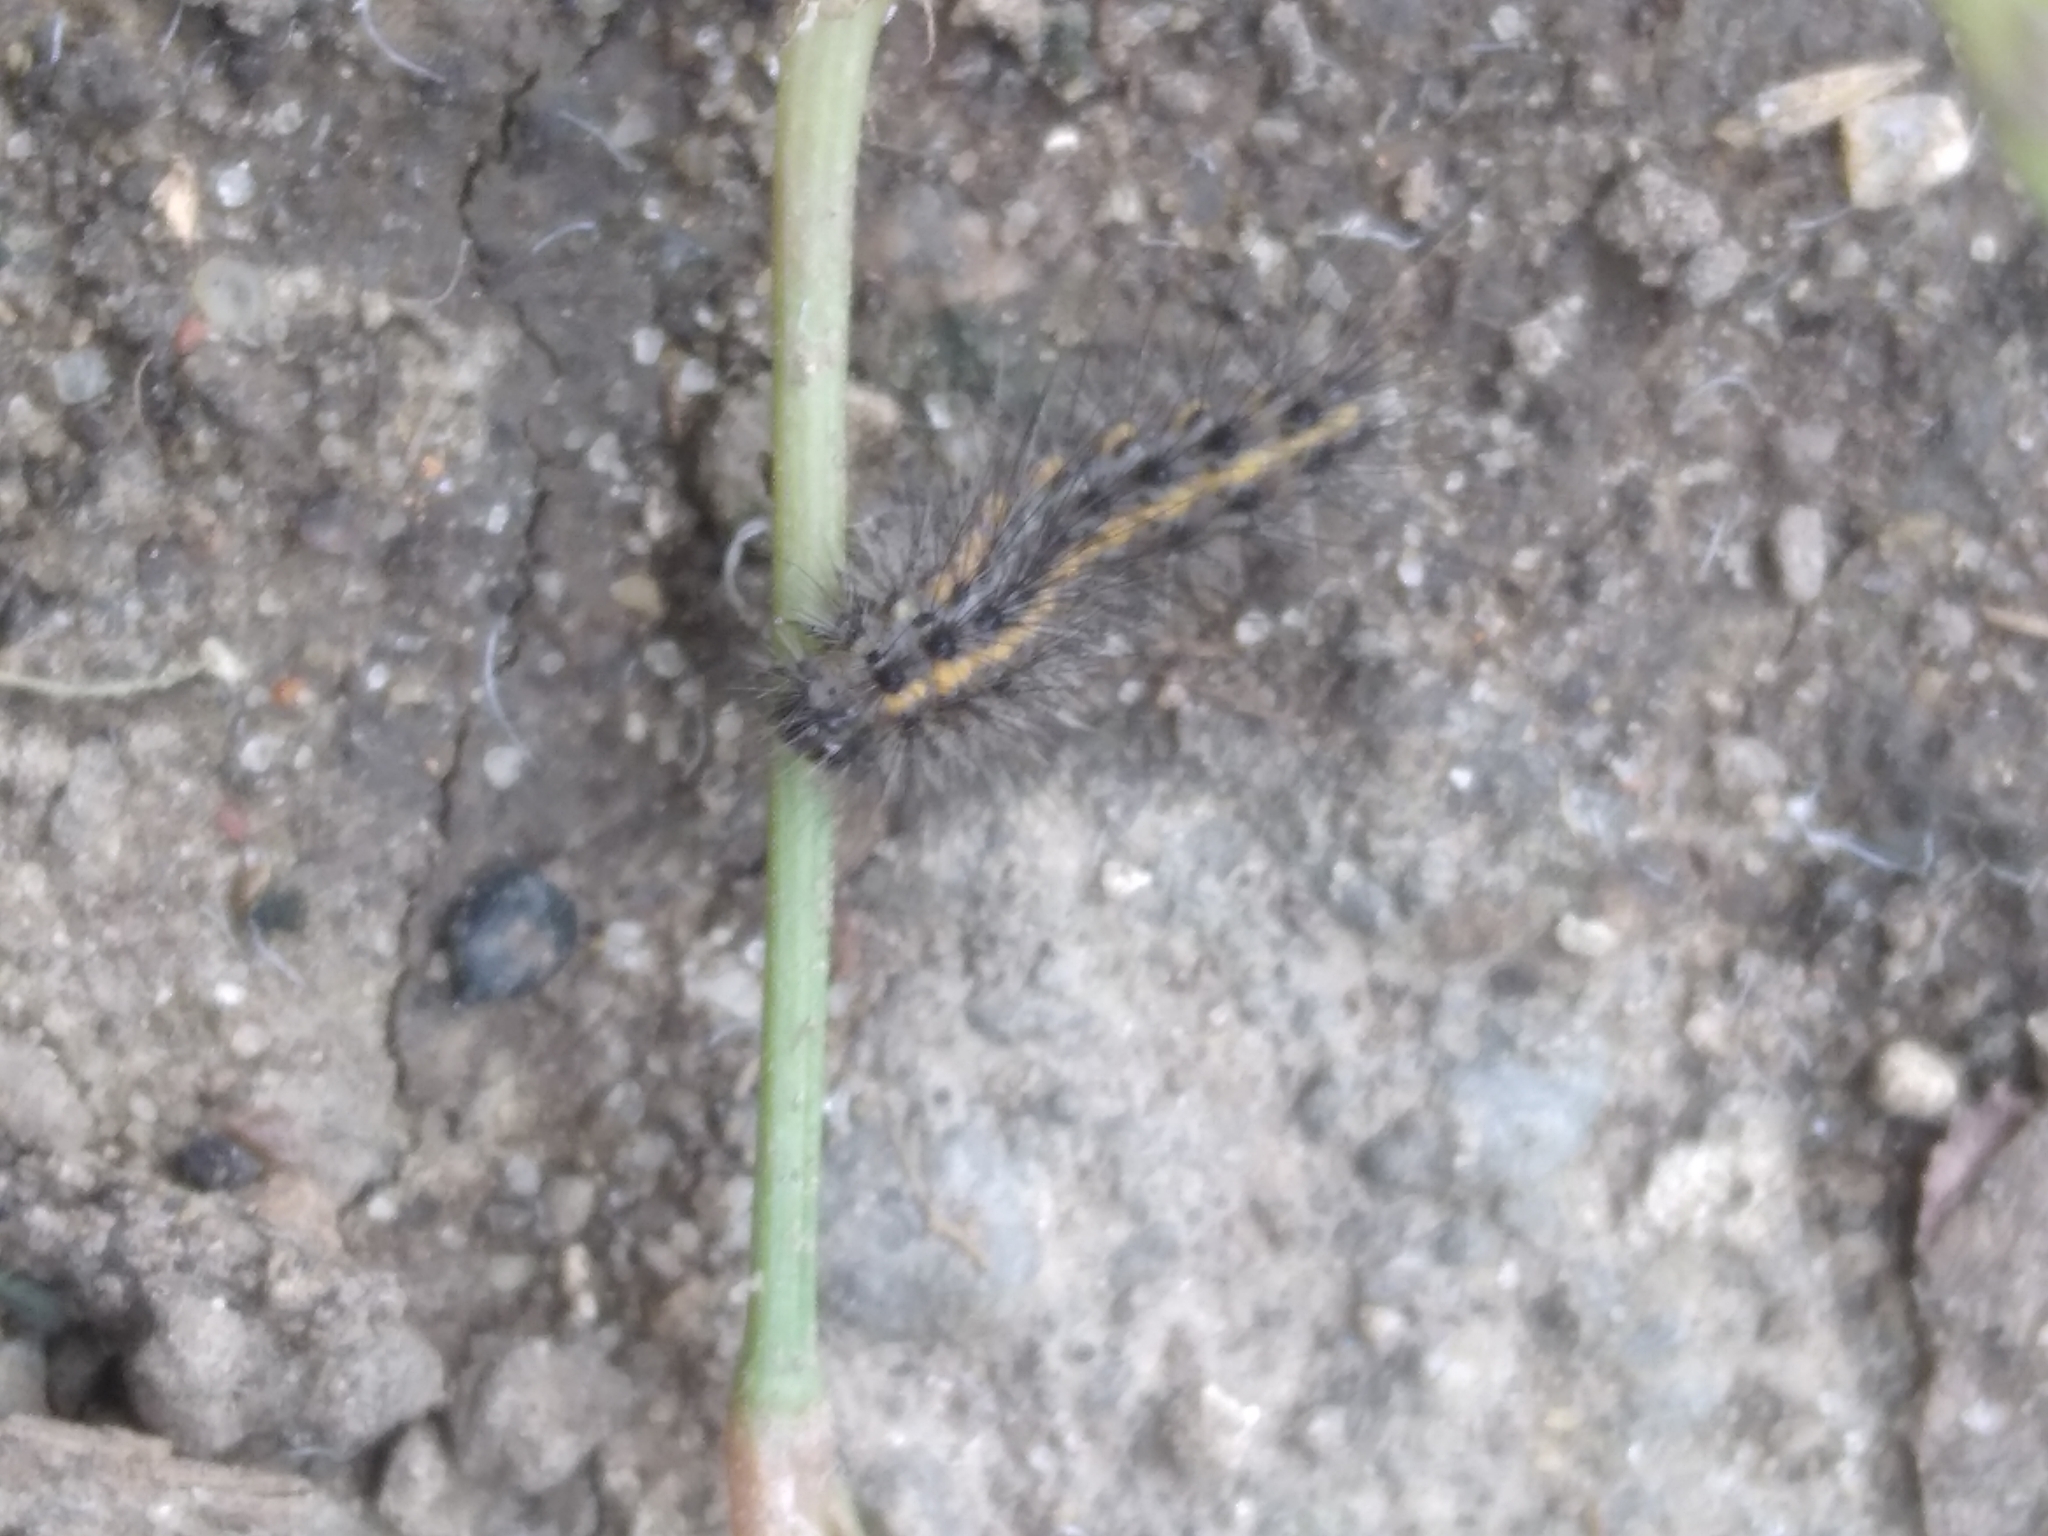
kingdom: Animalia
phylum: Arthropoda
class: Insecta
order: Lepidoptera
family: Erebidae
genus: Spilosoma
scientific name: Spilosoma
